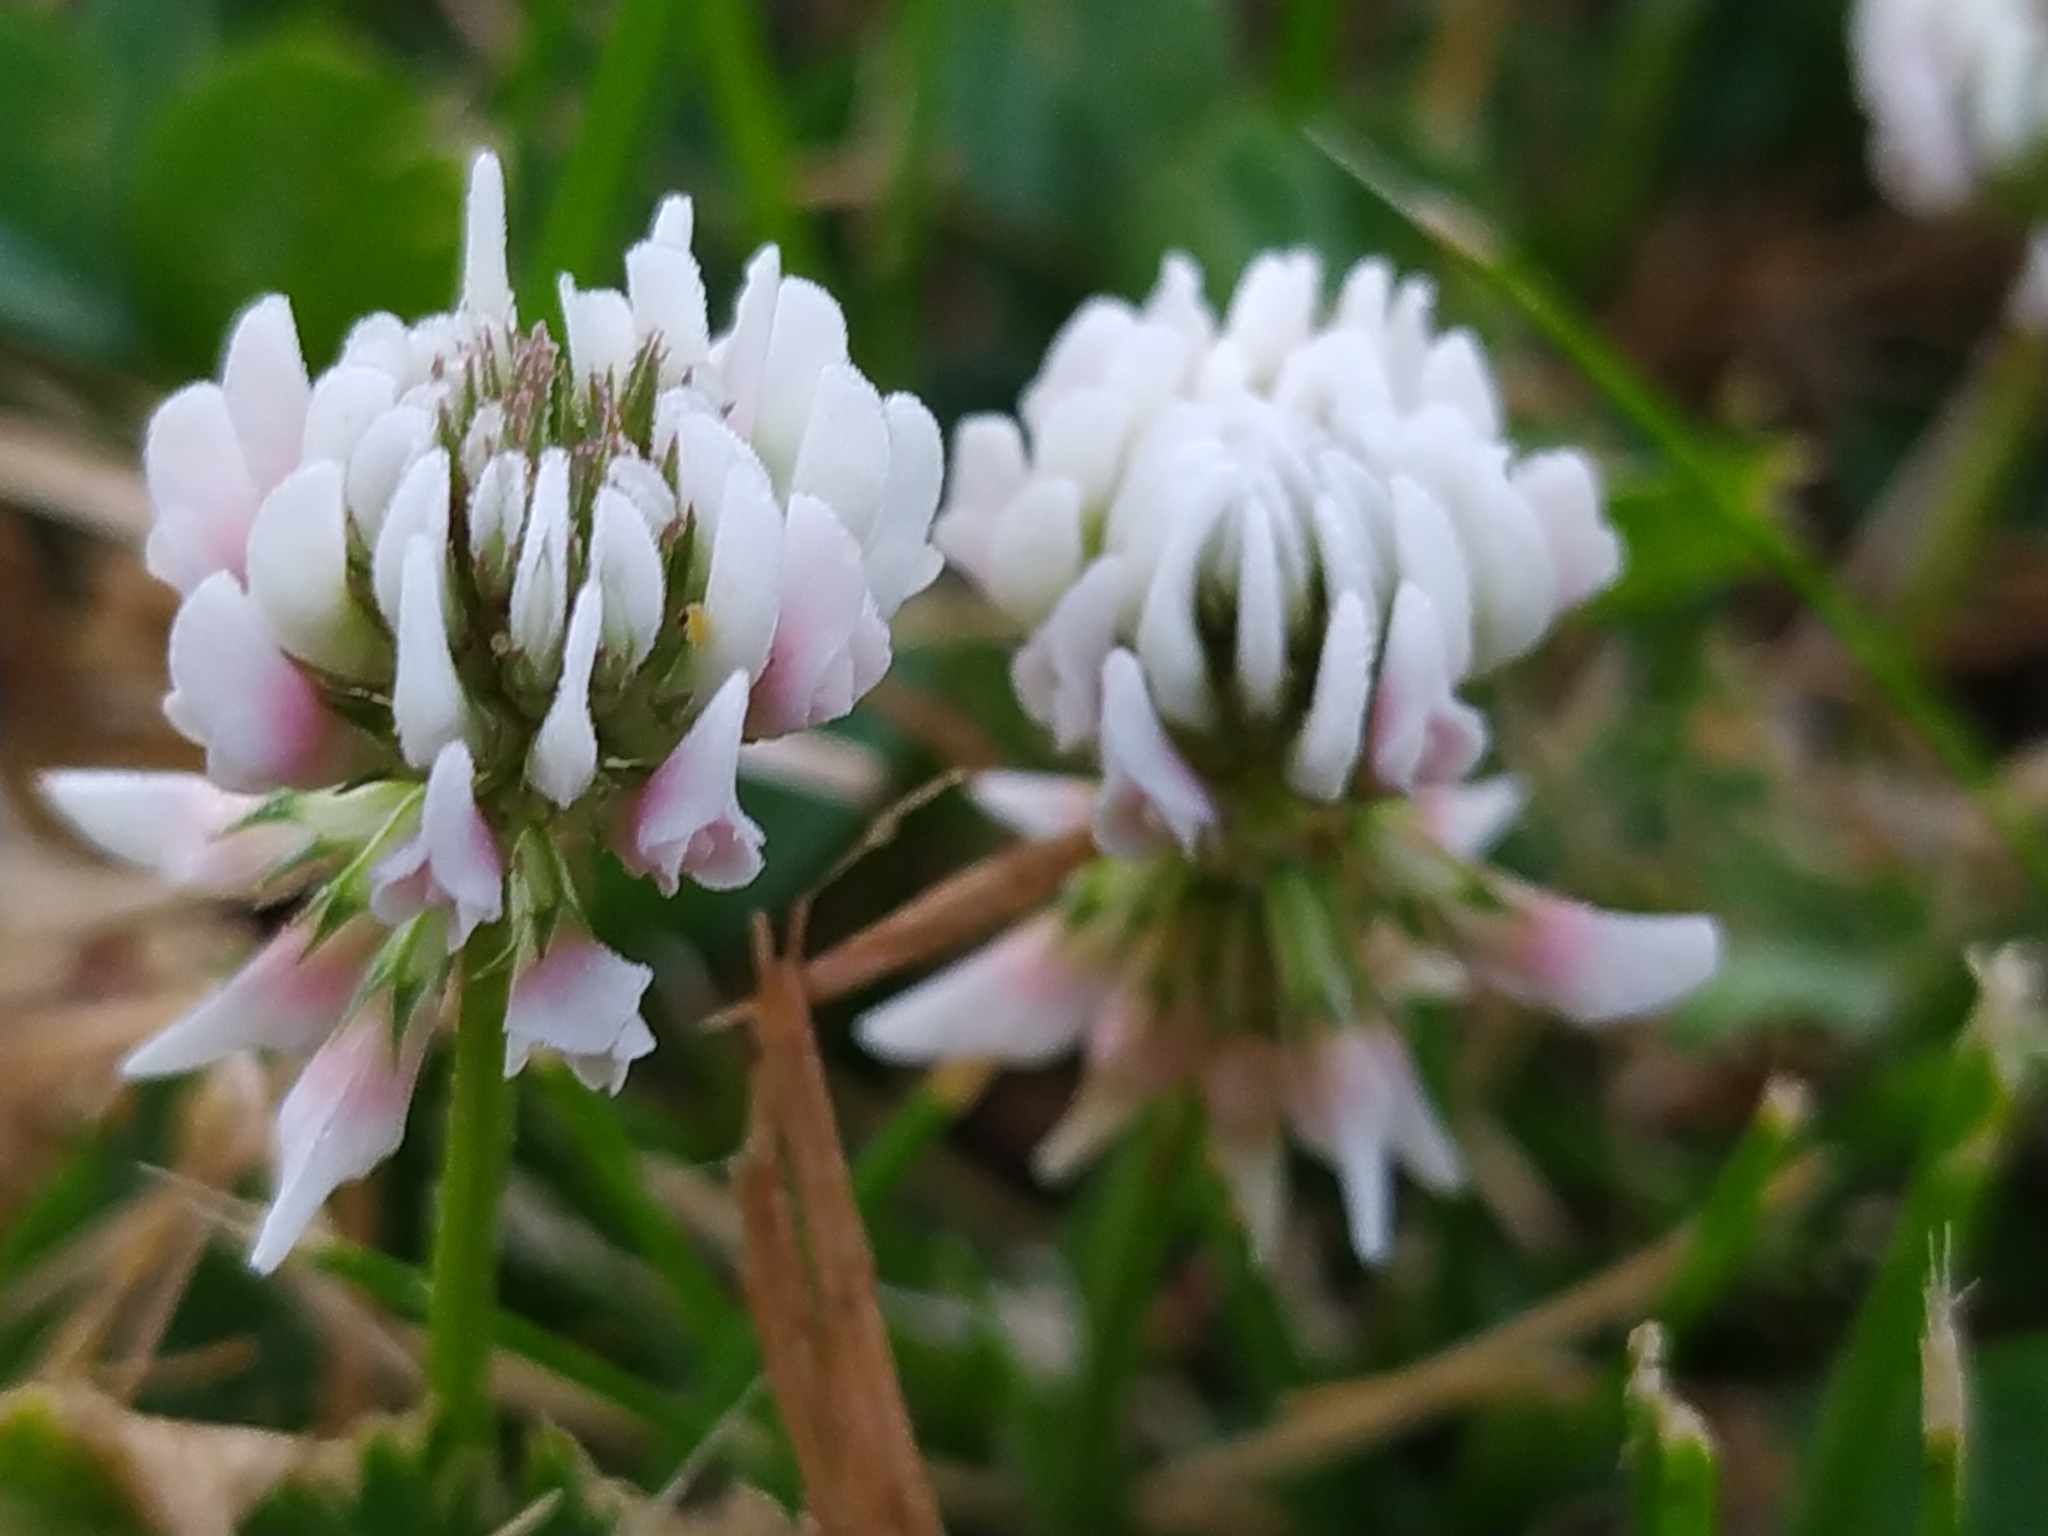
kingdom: Plantae
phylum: Tracheophyta
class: Magnoliopsida
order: Fabales
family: Fabaceae
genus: Trifolium
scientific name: Trifolium repens
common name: White clover
